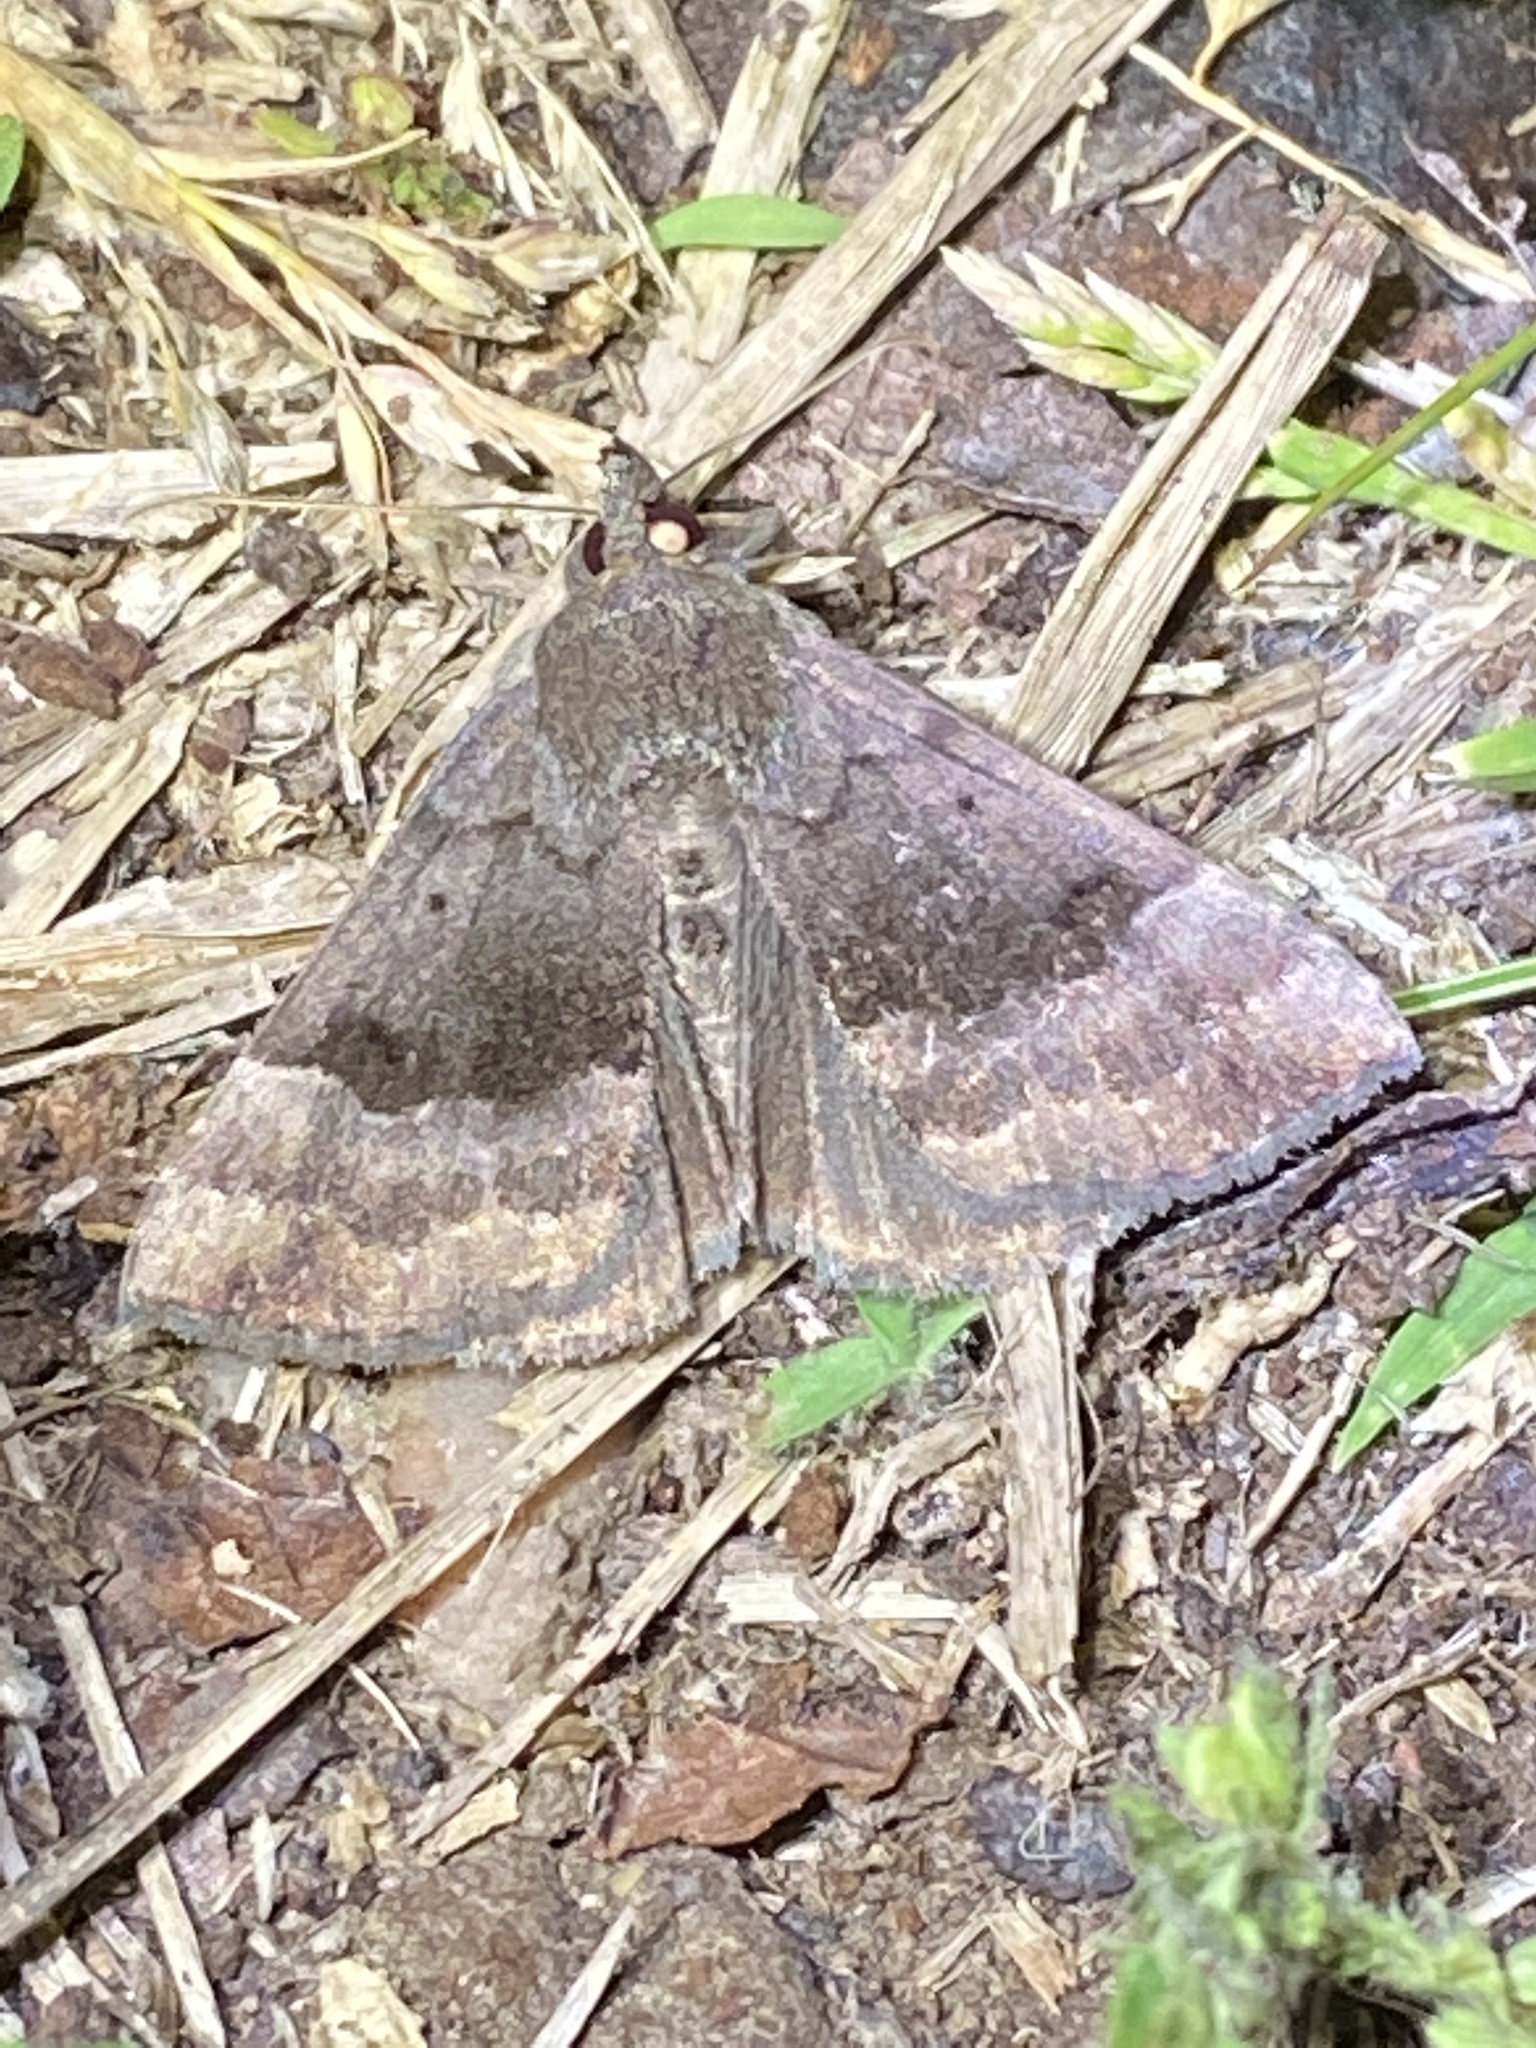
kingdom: Animalia
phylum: Arthropoda
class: Insecta
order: Lepidoptera
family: Erebidae
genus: Hypena
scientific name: Hypena madefactalis
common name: Gray-edged snout
